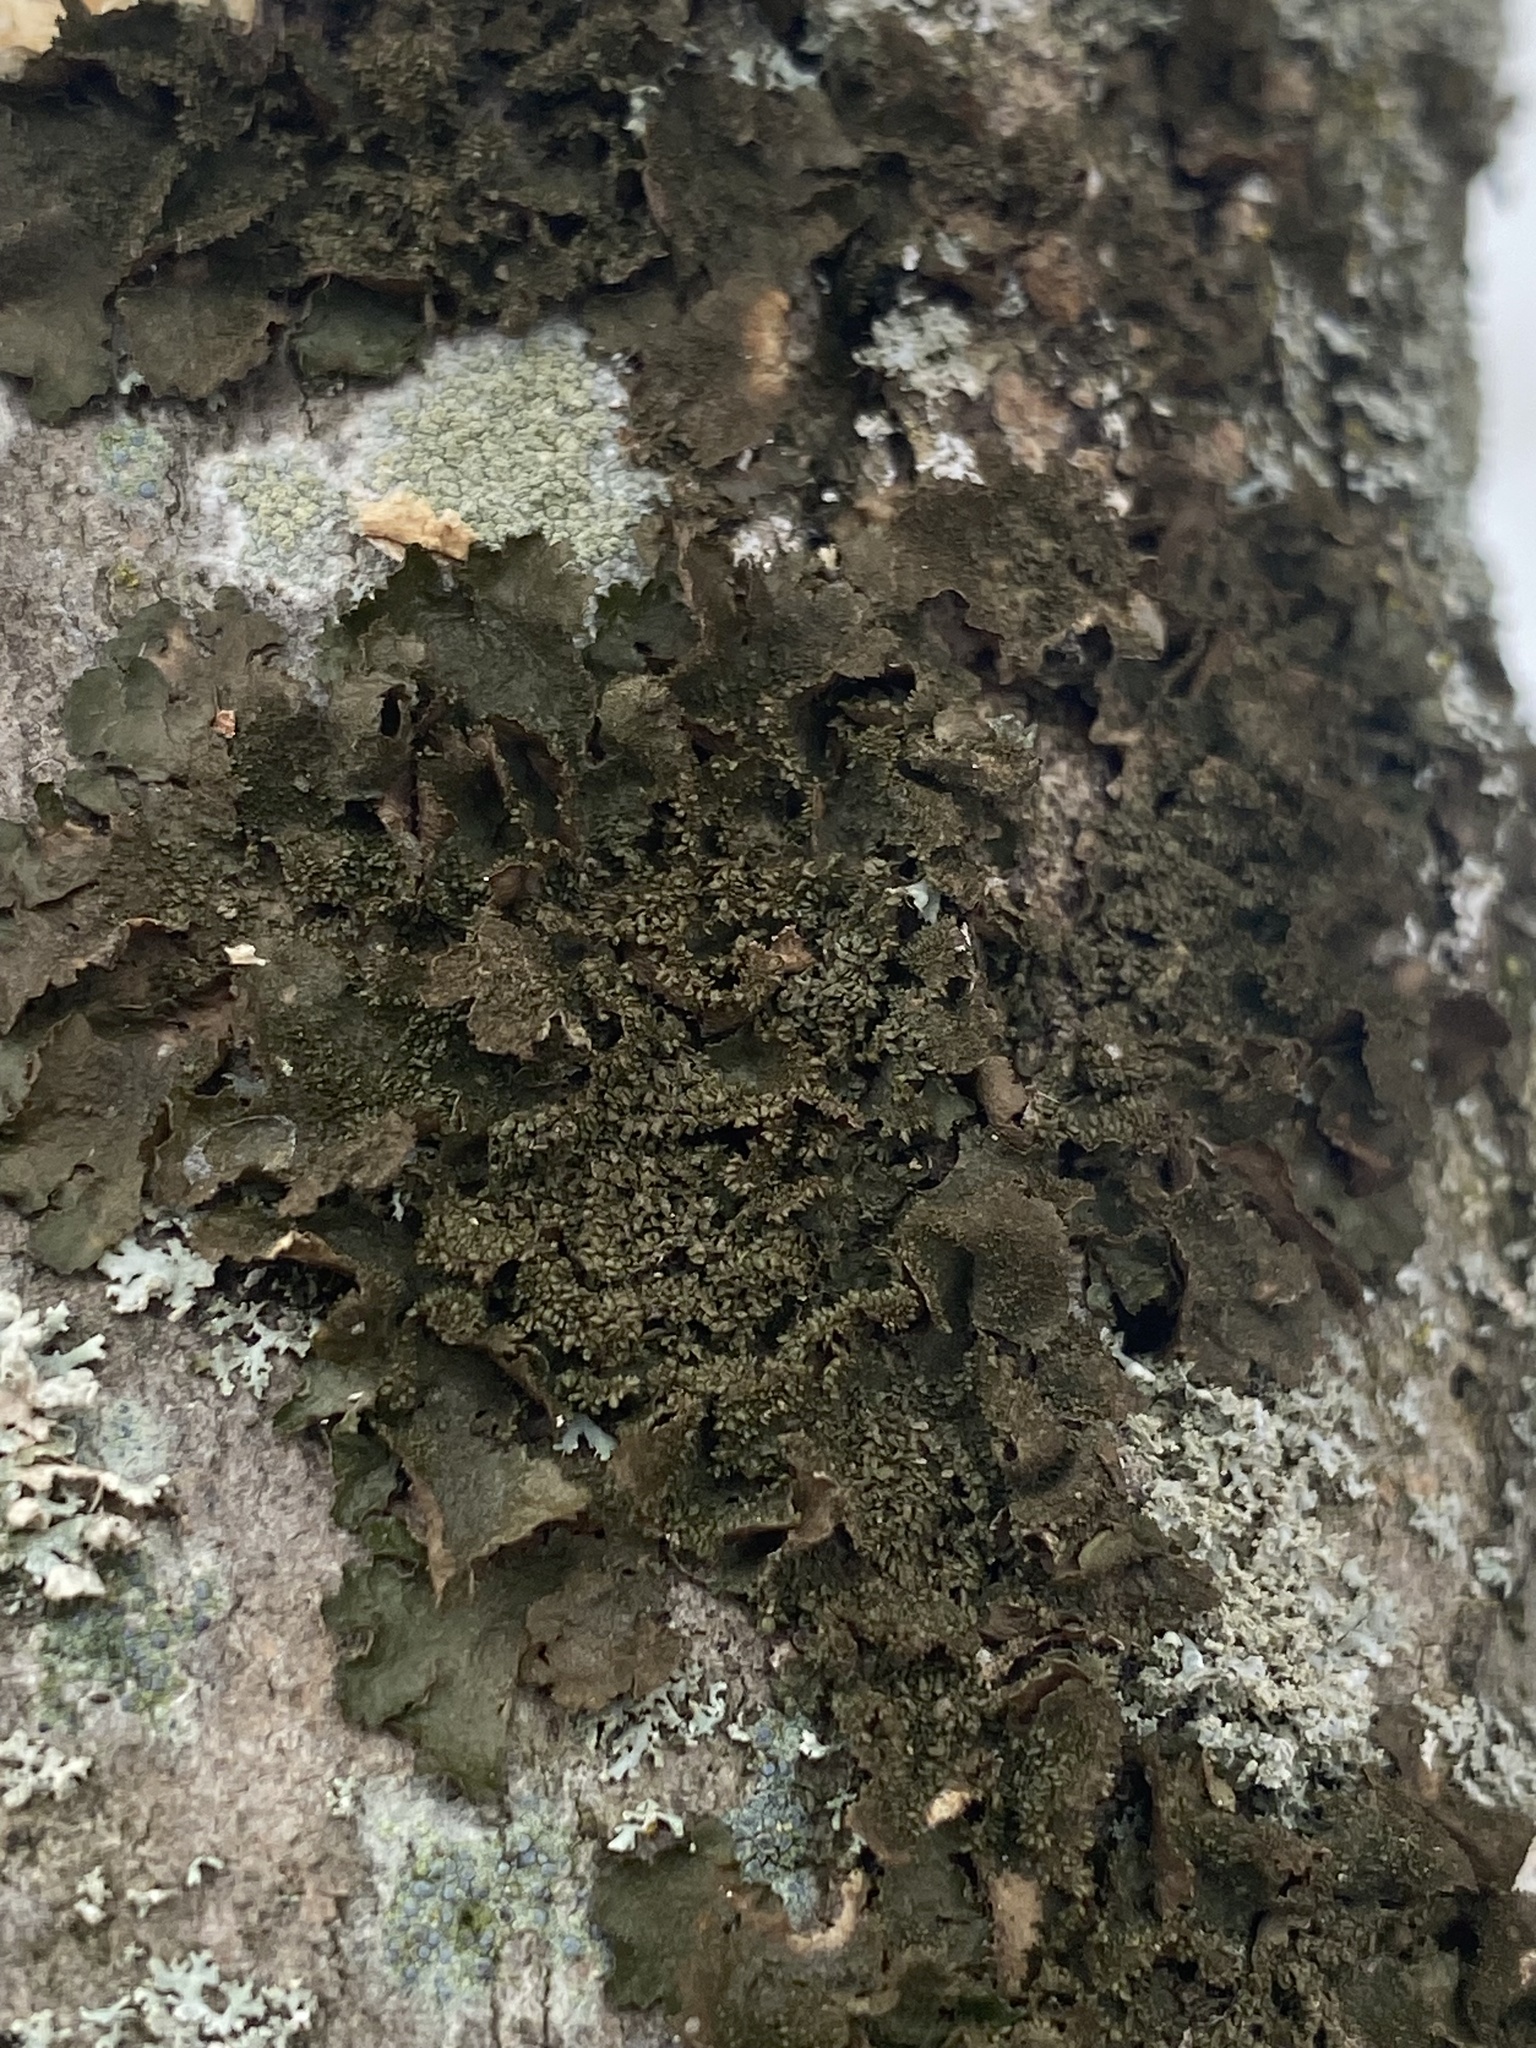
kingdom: Fungi
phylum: Ascomycota
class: Lecanoromycetes
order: Lecanorales
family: Parmeliaceae
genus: Melanohalea
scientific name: Melanohalea exasperatula
